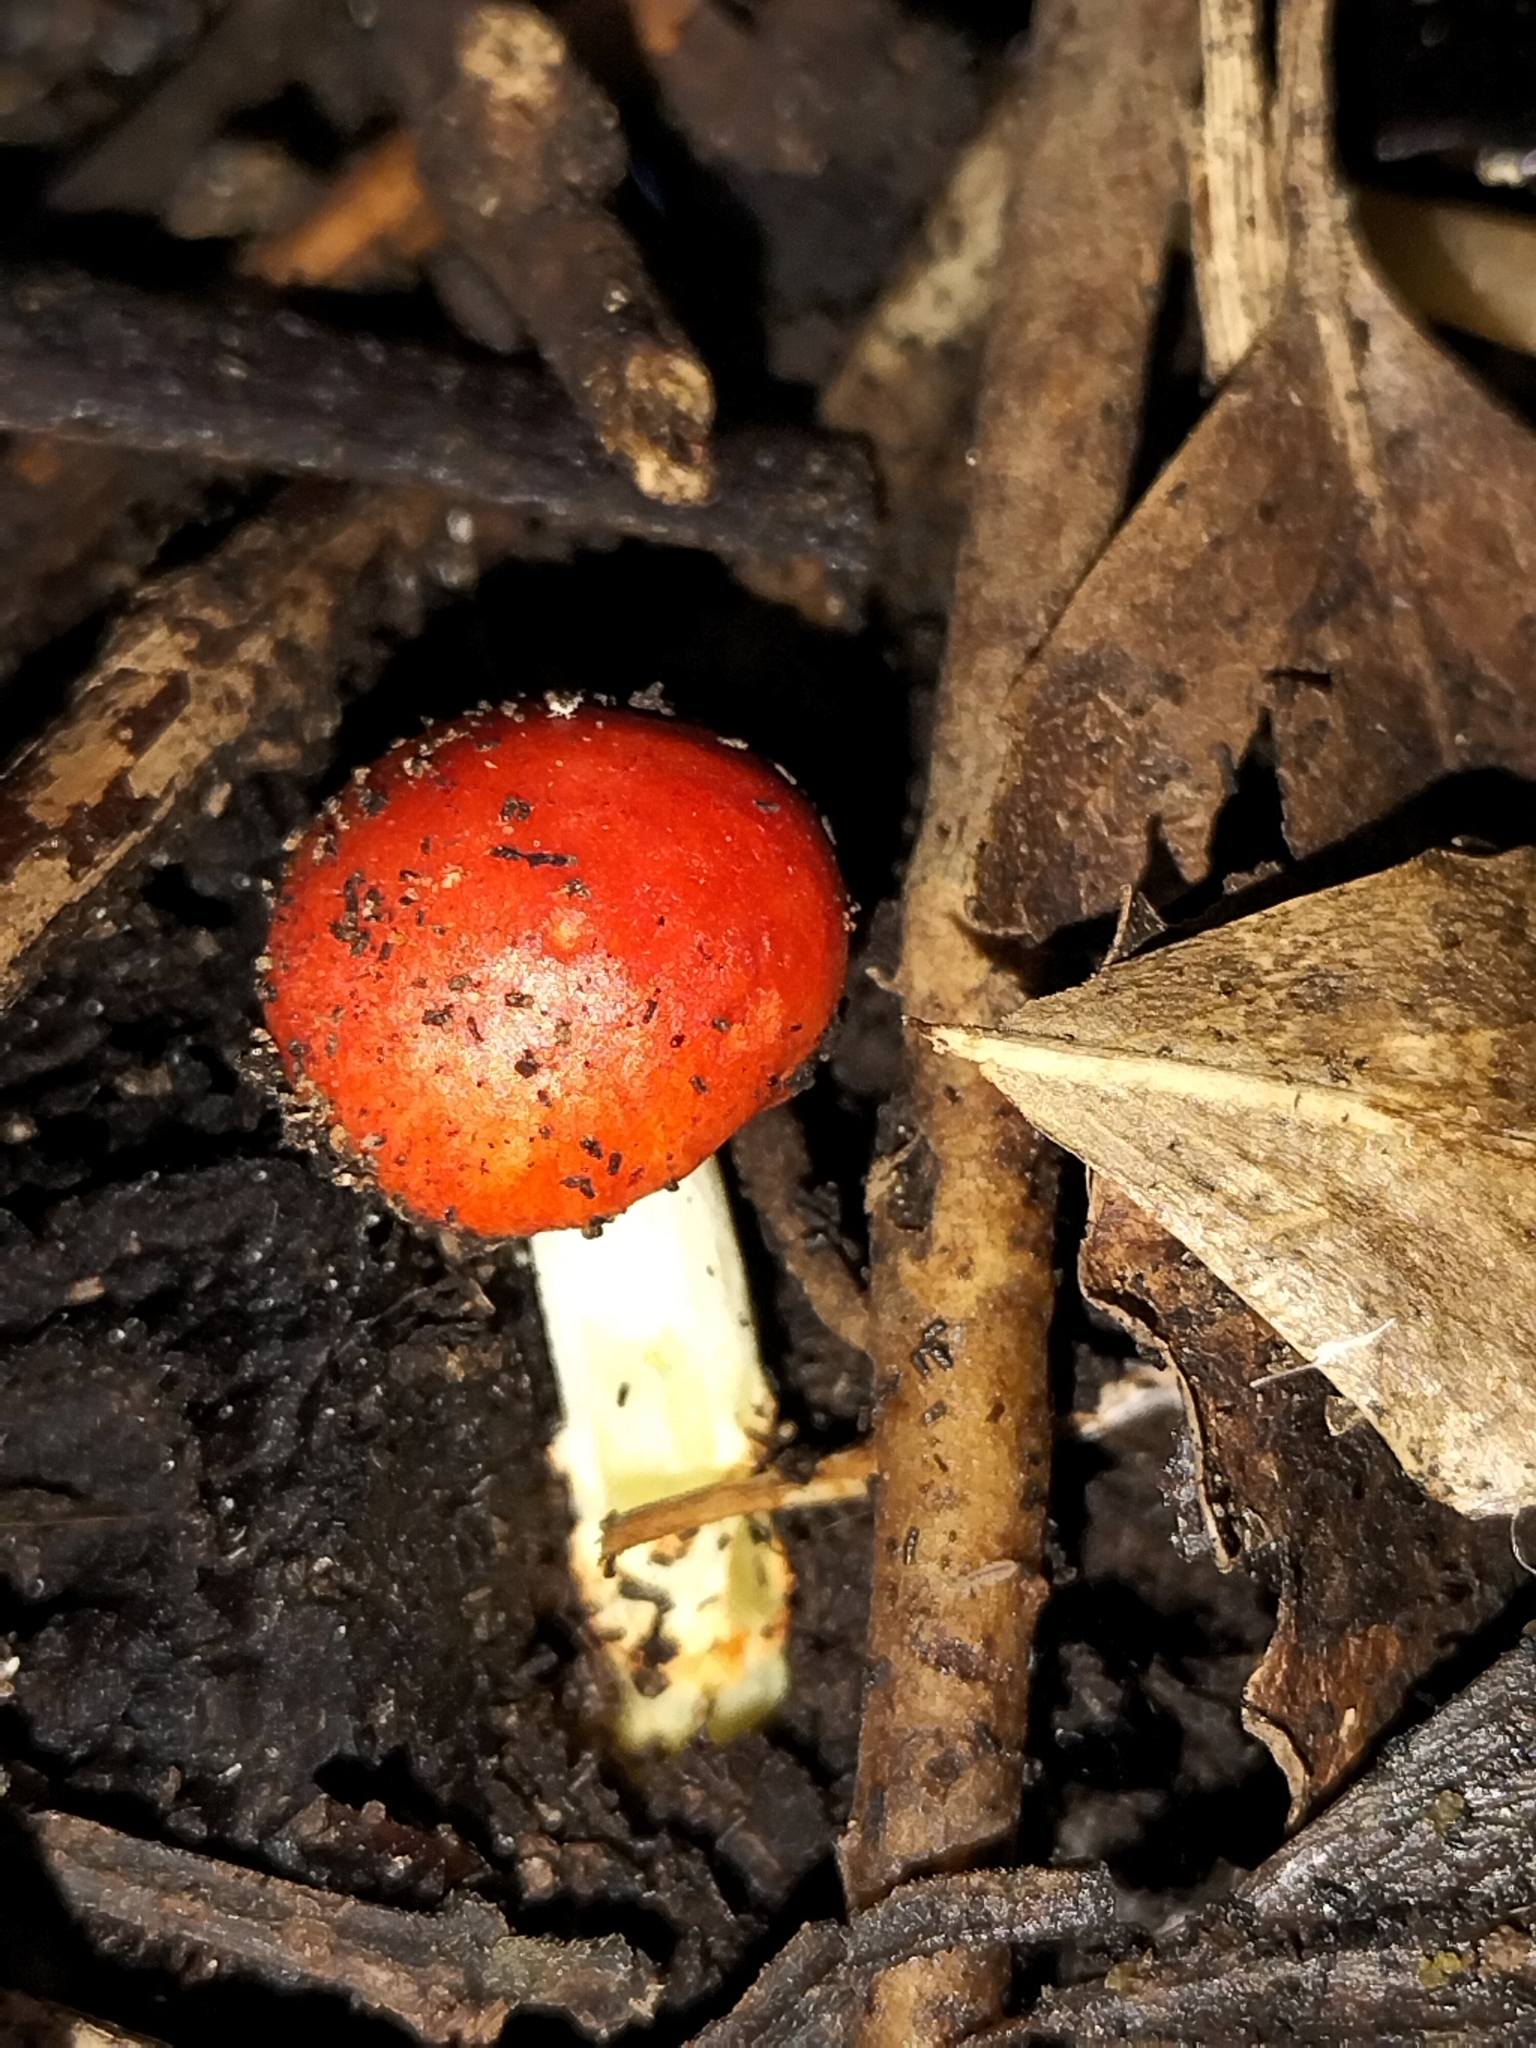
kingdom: Fungi
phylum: Basidiomycota
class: Agaricomycetes
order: Agaricales
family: Strophariaceae
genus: Leratiomyces
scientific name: Leratiomyces erythrocephalus
